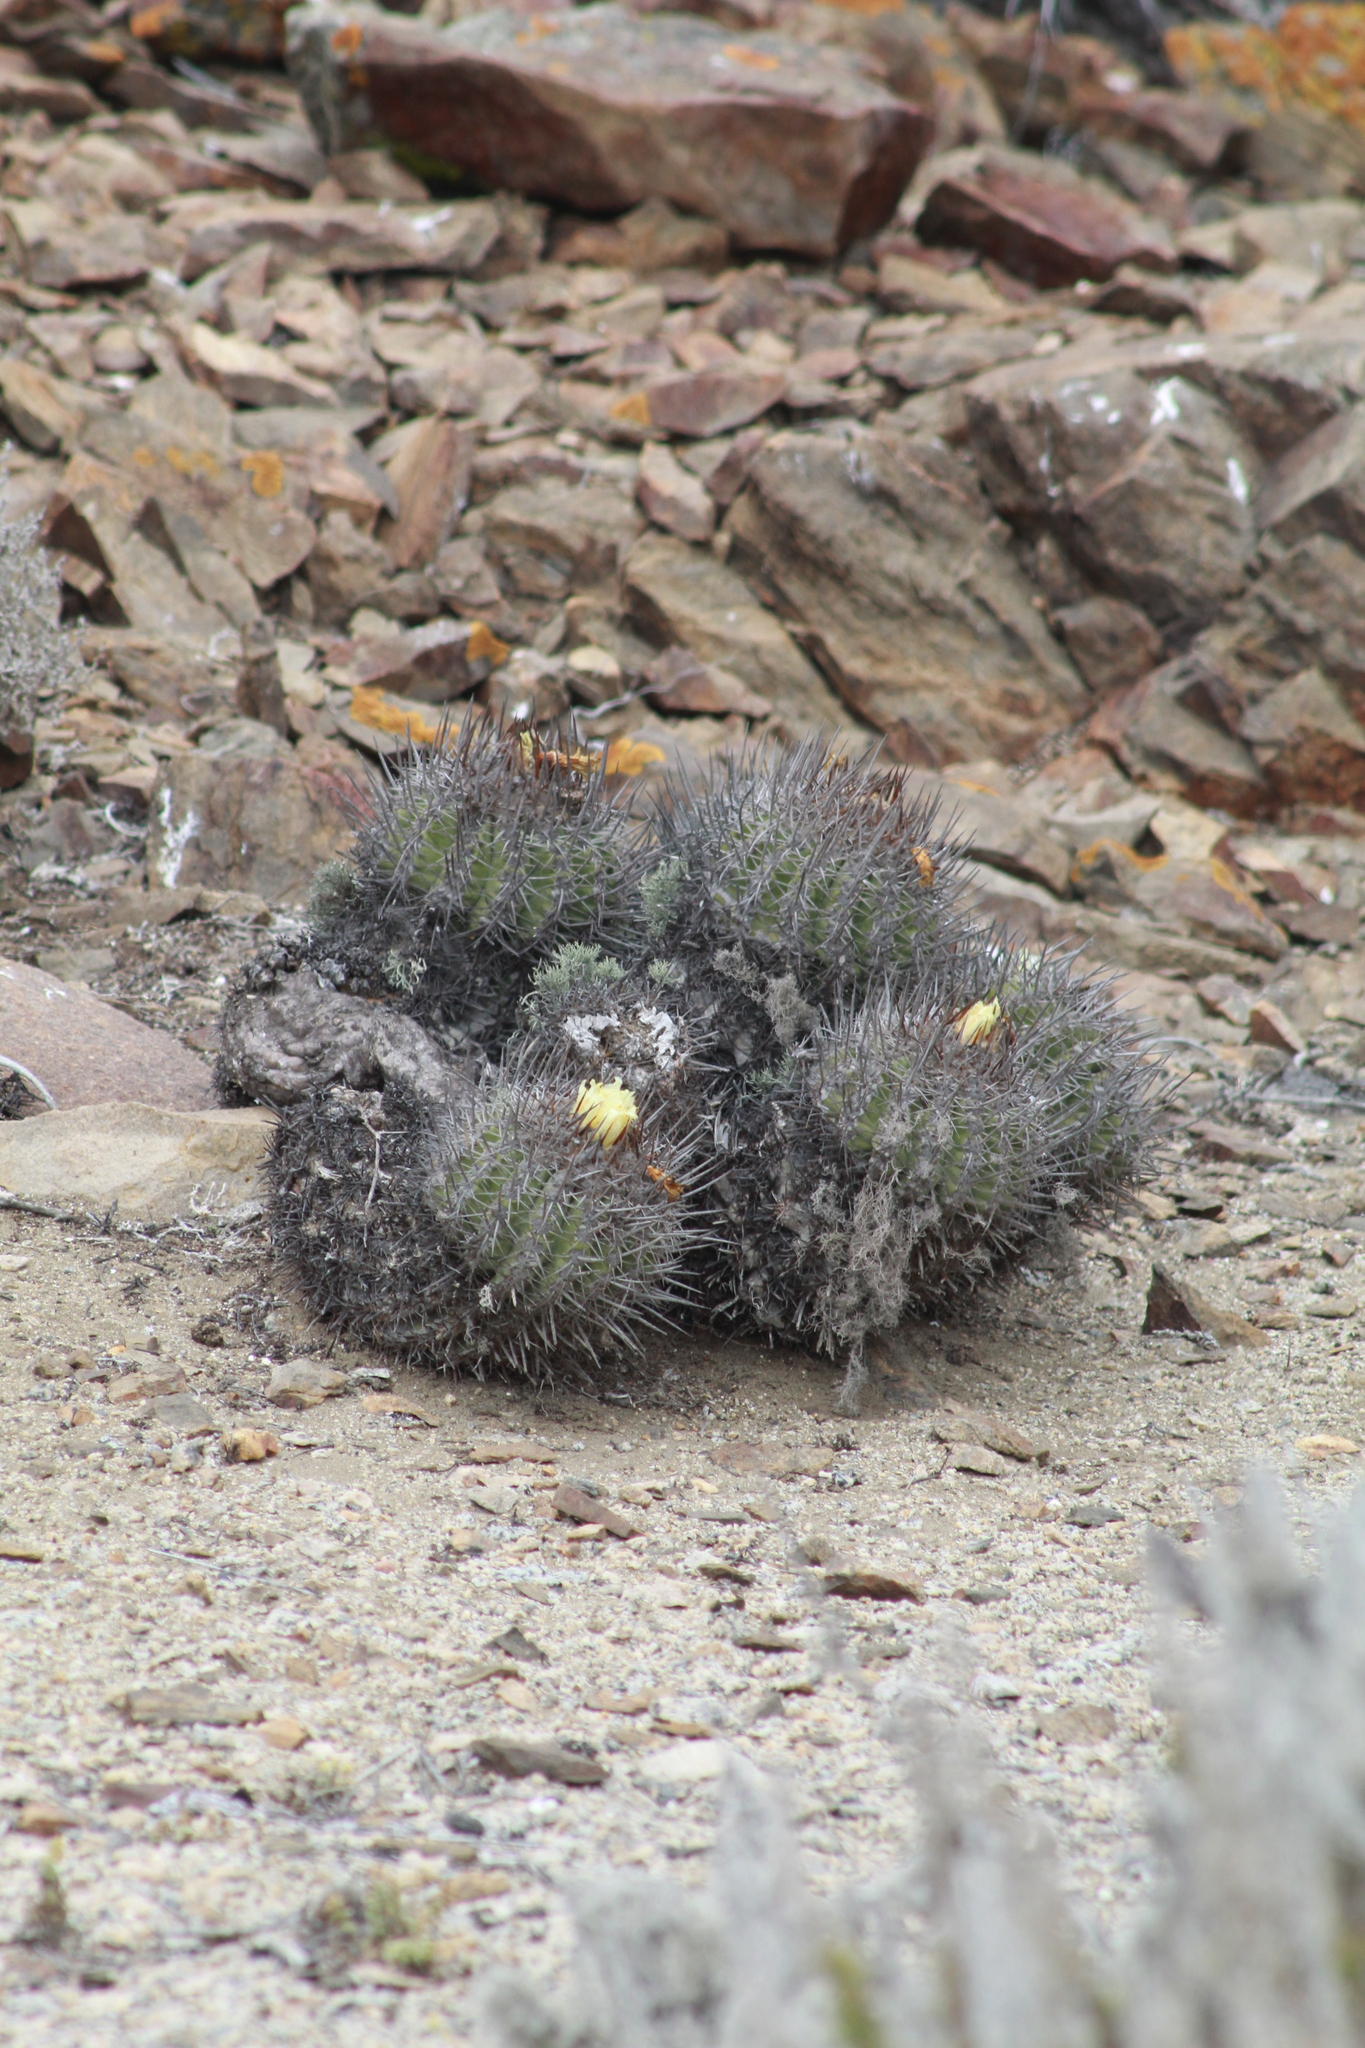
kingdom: Plantae
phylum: Tracheophyta
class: Magnoliopsida
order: Caryophyllales
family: Cactaceae
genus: Copiapoa
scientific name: Copiapoa coquimbana
